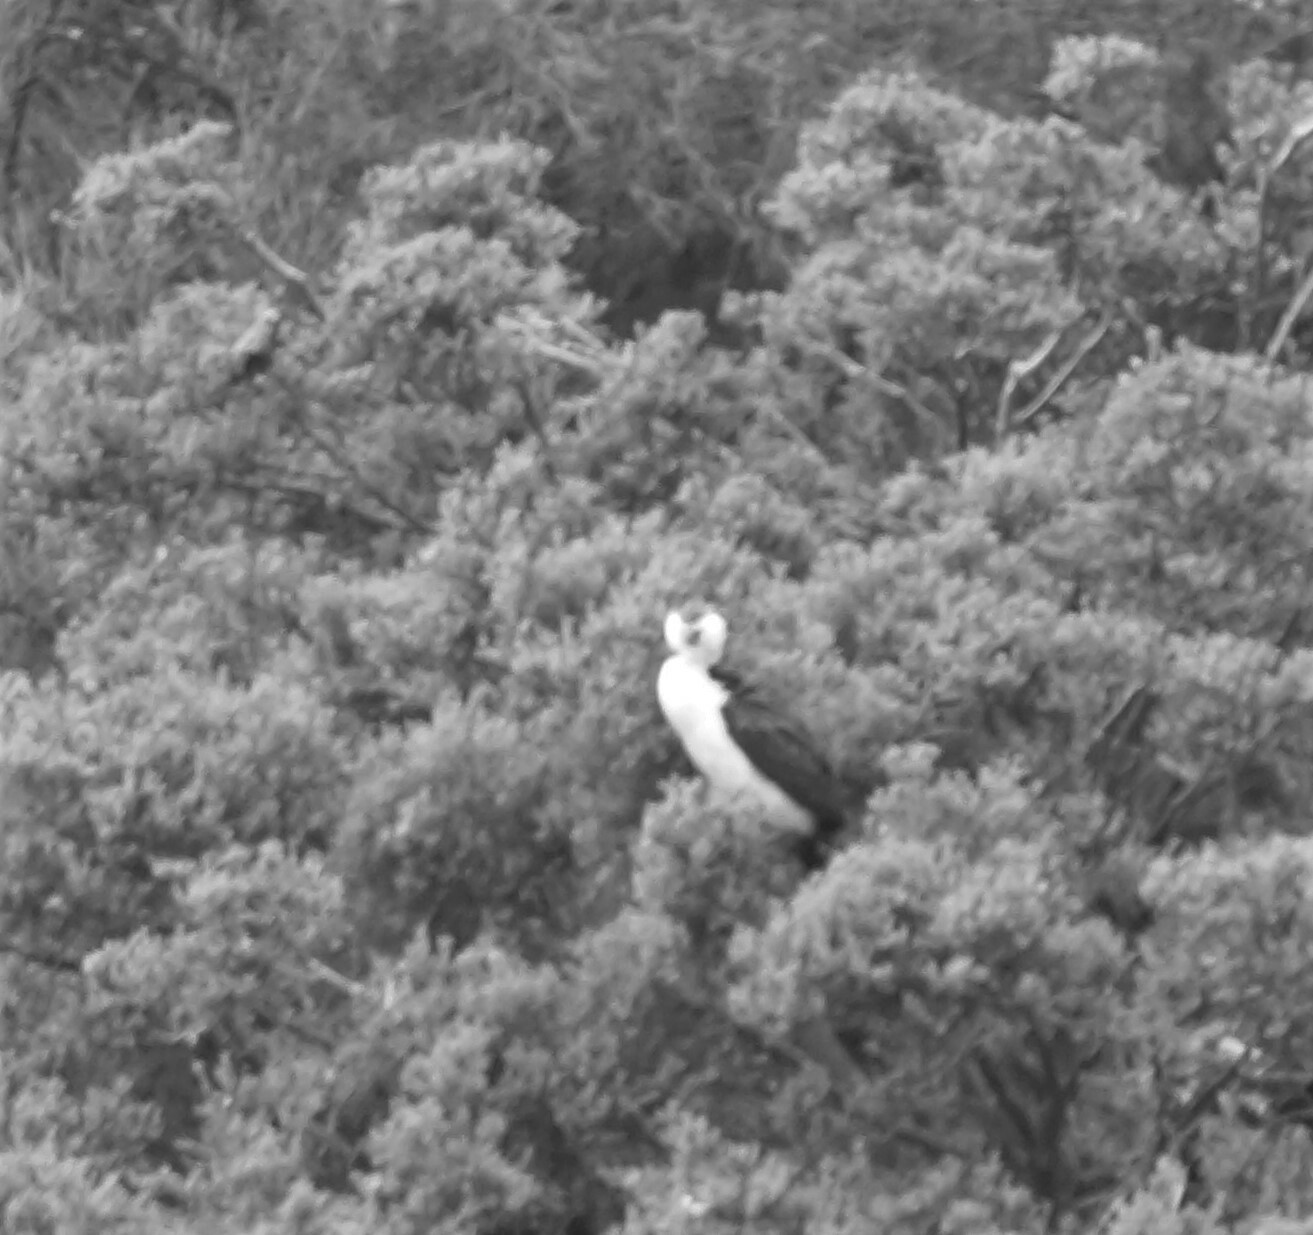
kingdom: Animalia
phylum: Chordata
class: Aves
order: Suliformes
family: Phalacrocoracidae
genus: Microcarbo
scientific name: Microcarbo melanoleucos
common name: Little pied cormorant
